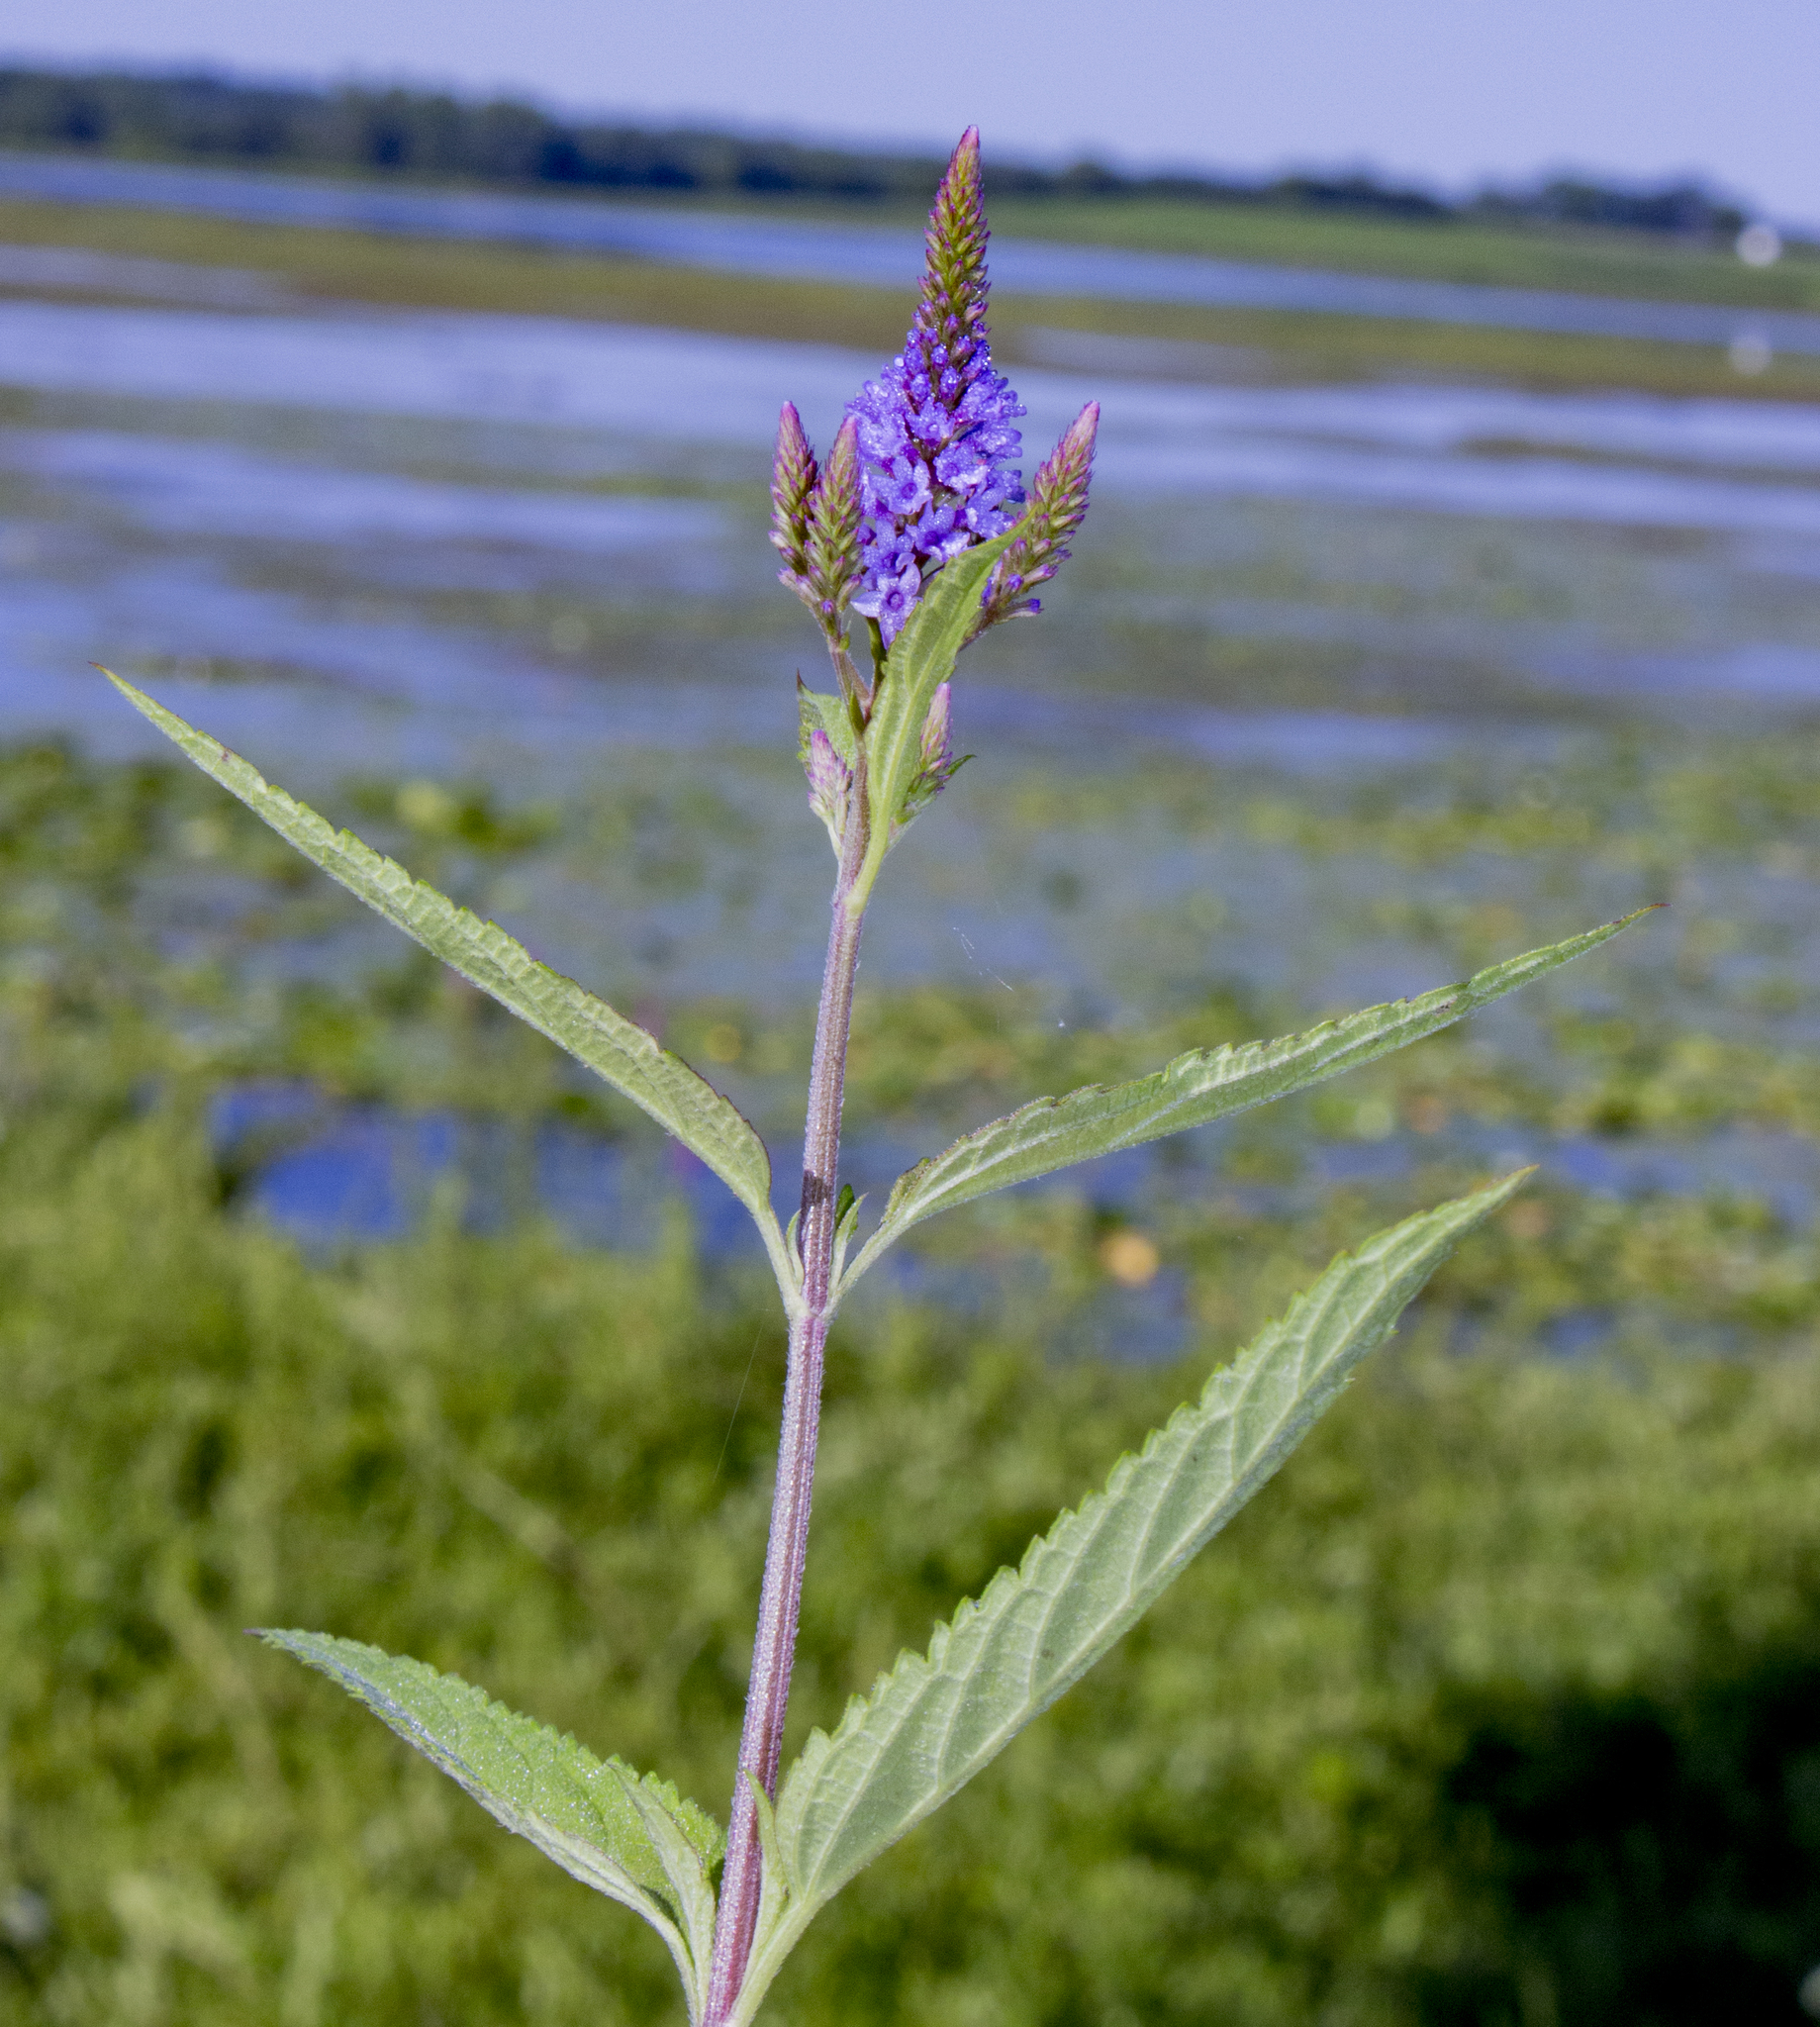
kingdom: Plantae
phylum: Tracheophyta
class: Magnoliopsida
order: Lamiales
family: Verbenaceae
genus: Verbena
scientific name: Verbena hastata
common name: American blue vervain
